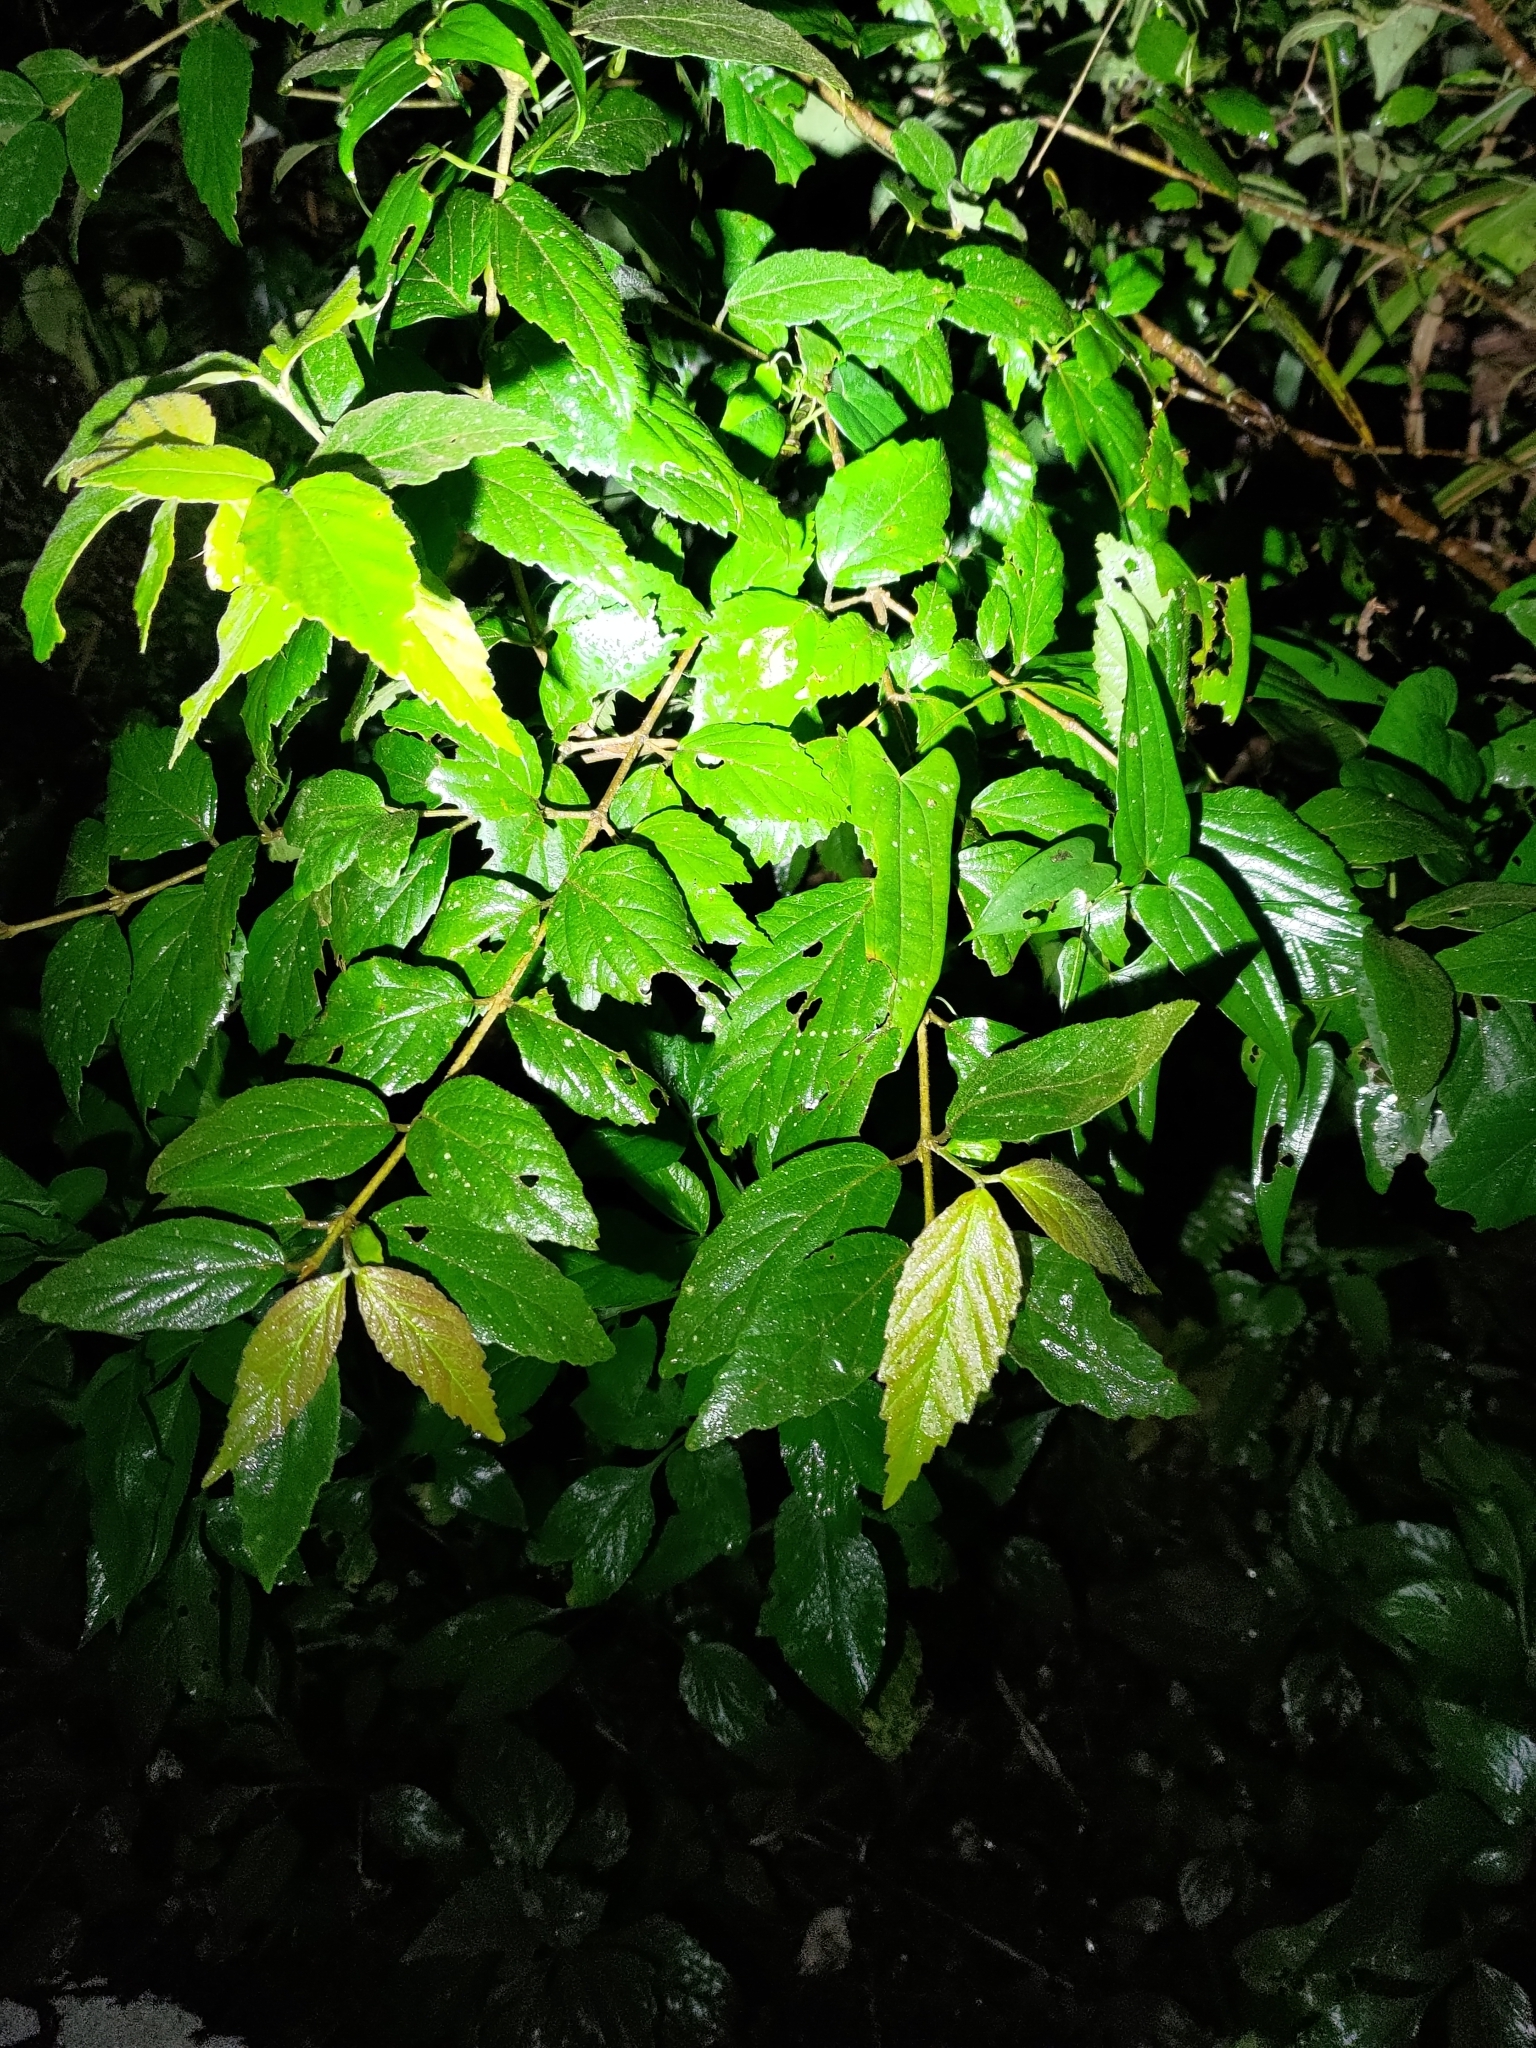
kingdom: Plantae
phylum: Tracheophyta
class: Magnoliopsida
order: Dipsacales
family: Viburnaceae
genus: Viburnum
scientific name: Viburnum luzonicum
